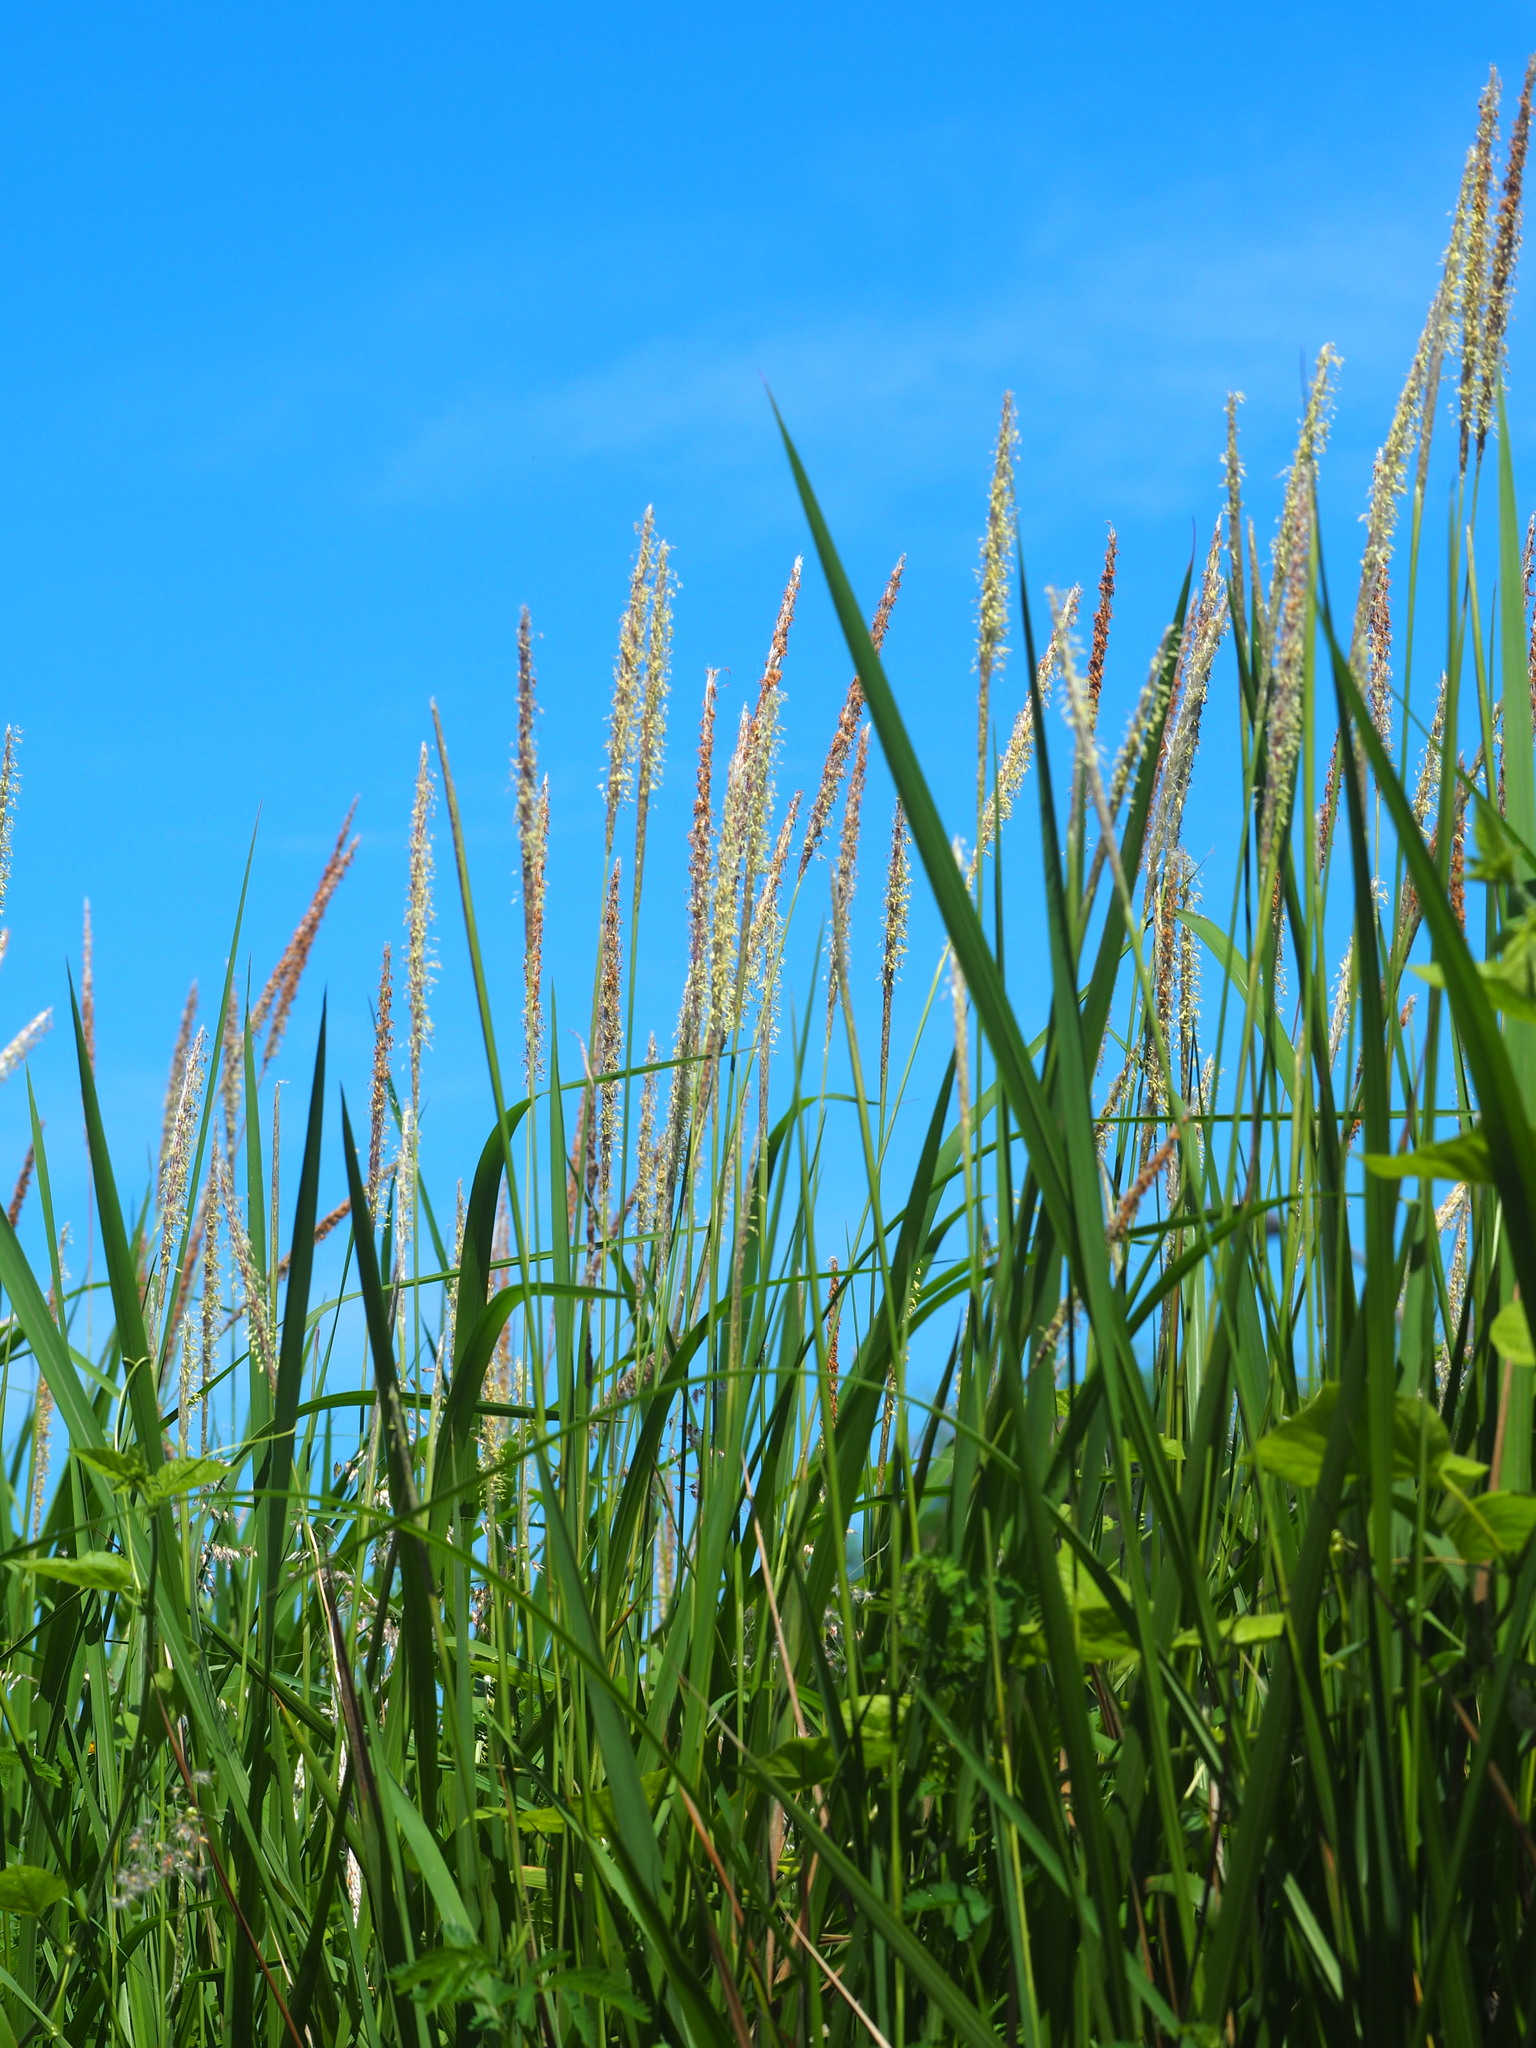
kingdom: Plantae
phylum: Tracheophyta
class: Liliopsida
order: Poales
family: Poaceae
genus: Imperata
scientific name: Imperata cylindrica
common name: Cogongrass
